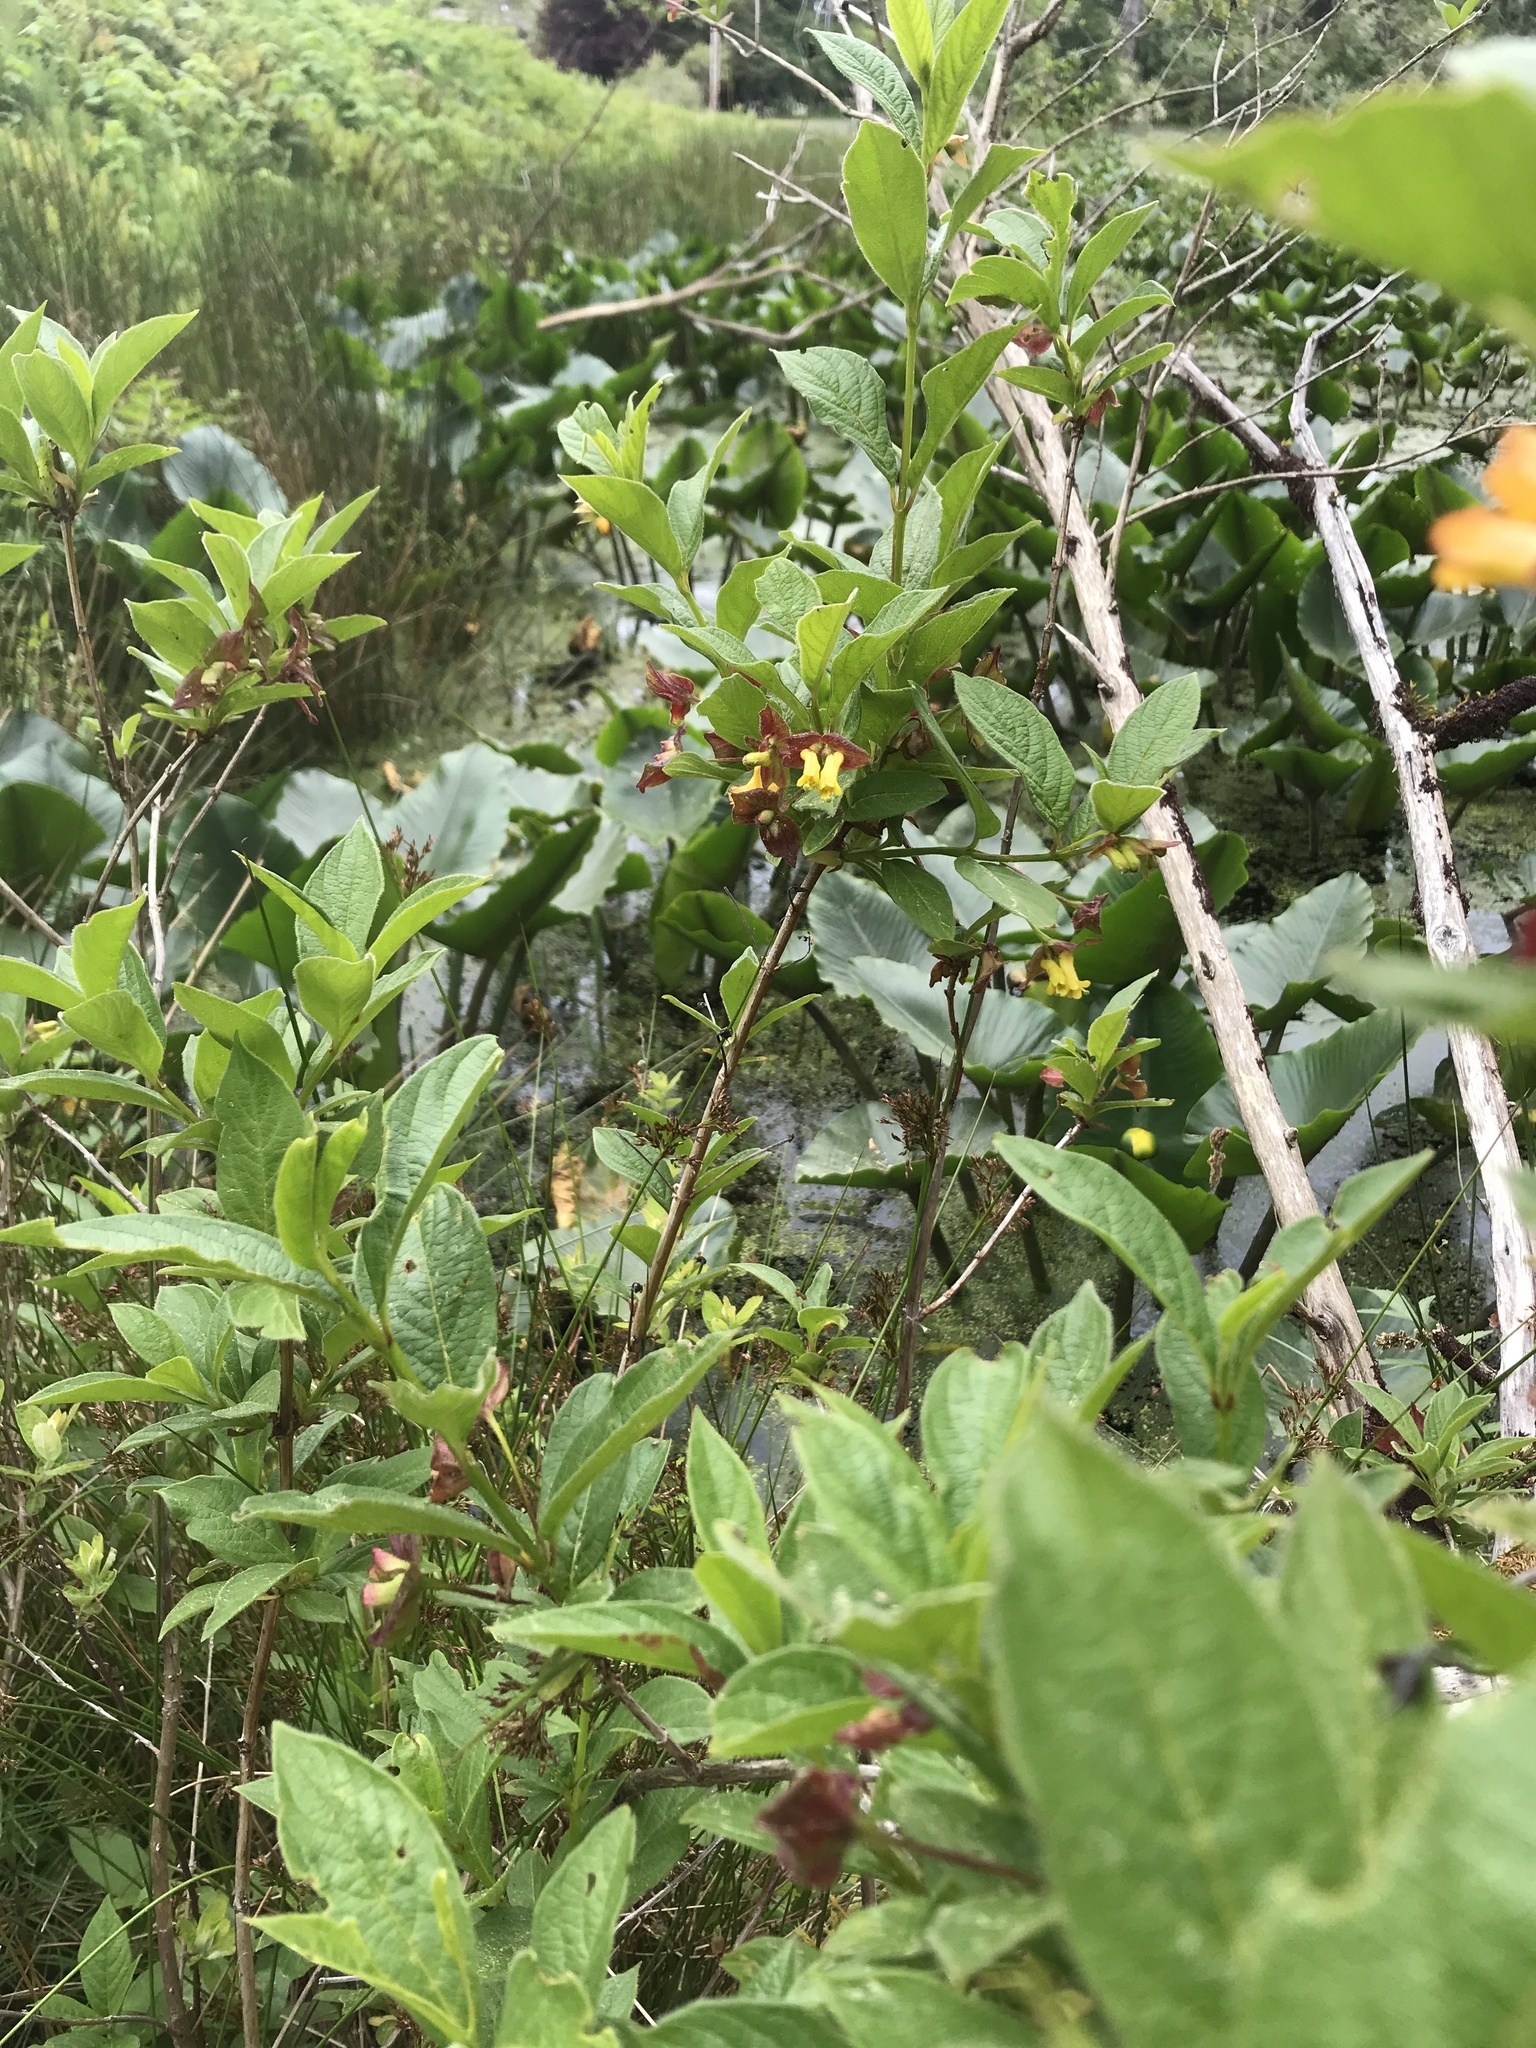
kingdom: Plantae
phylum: Tracheophyta
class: Magnoliopsida
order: Dipsacales
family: Caprifoliaceae
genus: Lonicera
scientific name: Lonicera involucrata
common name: Californian honeysuckle
